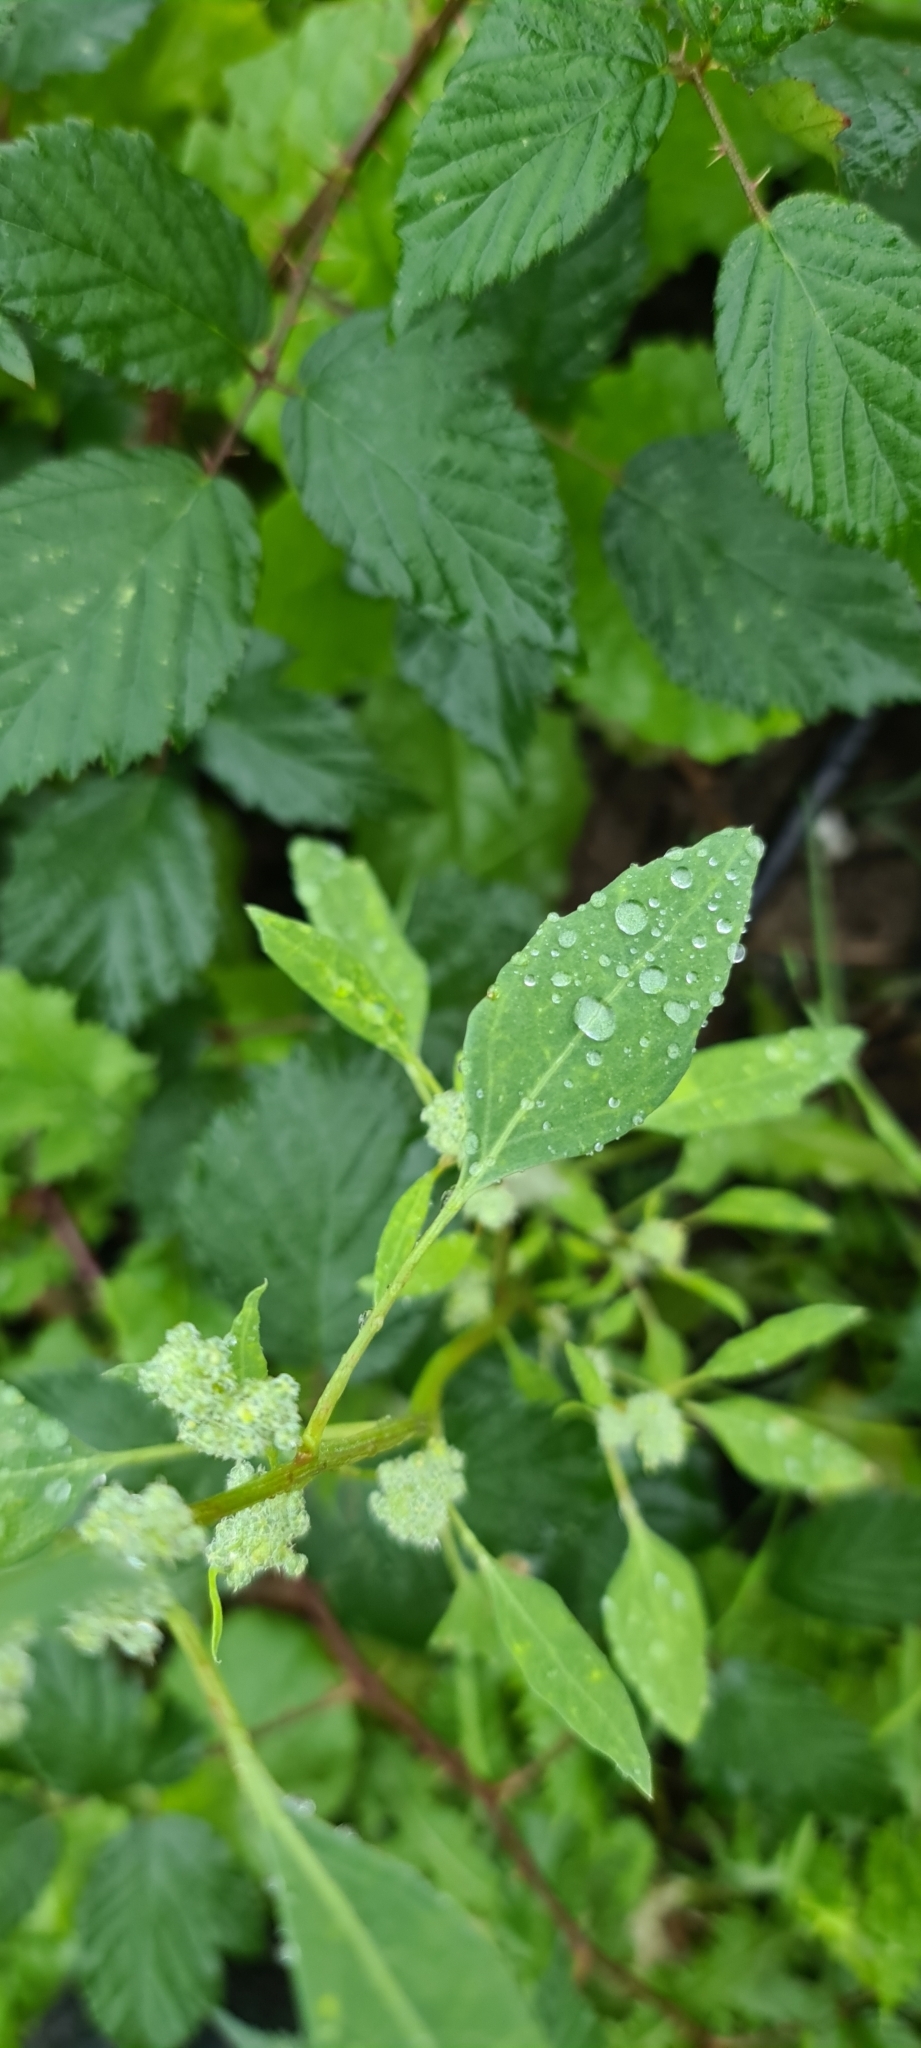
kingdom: Plantae
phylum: Tracheophyta
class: Magnoliopsida
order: Caryophyllales
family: Amaranthaceae
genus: Chenopodium
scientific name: Chenopodium album
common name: Fat-hen
